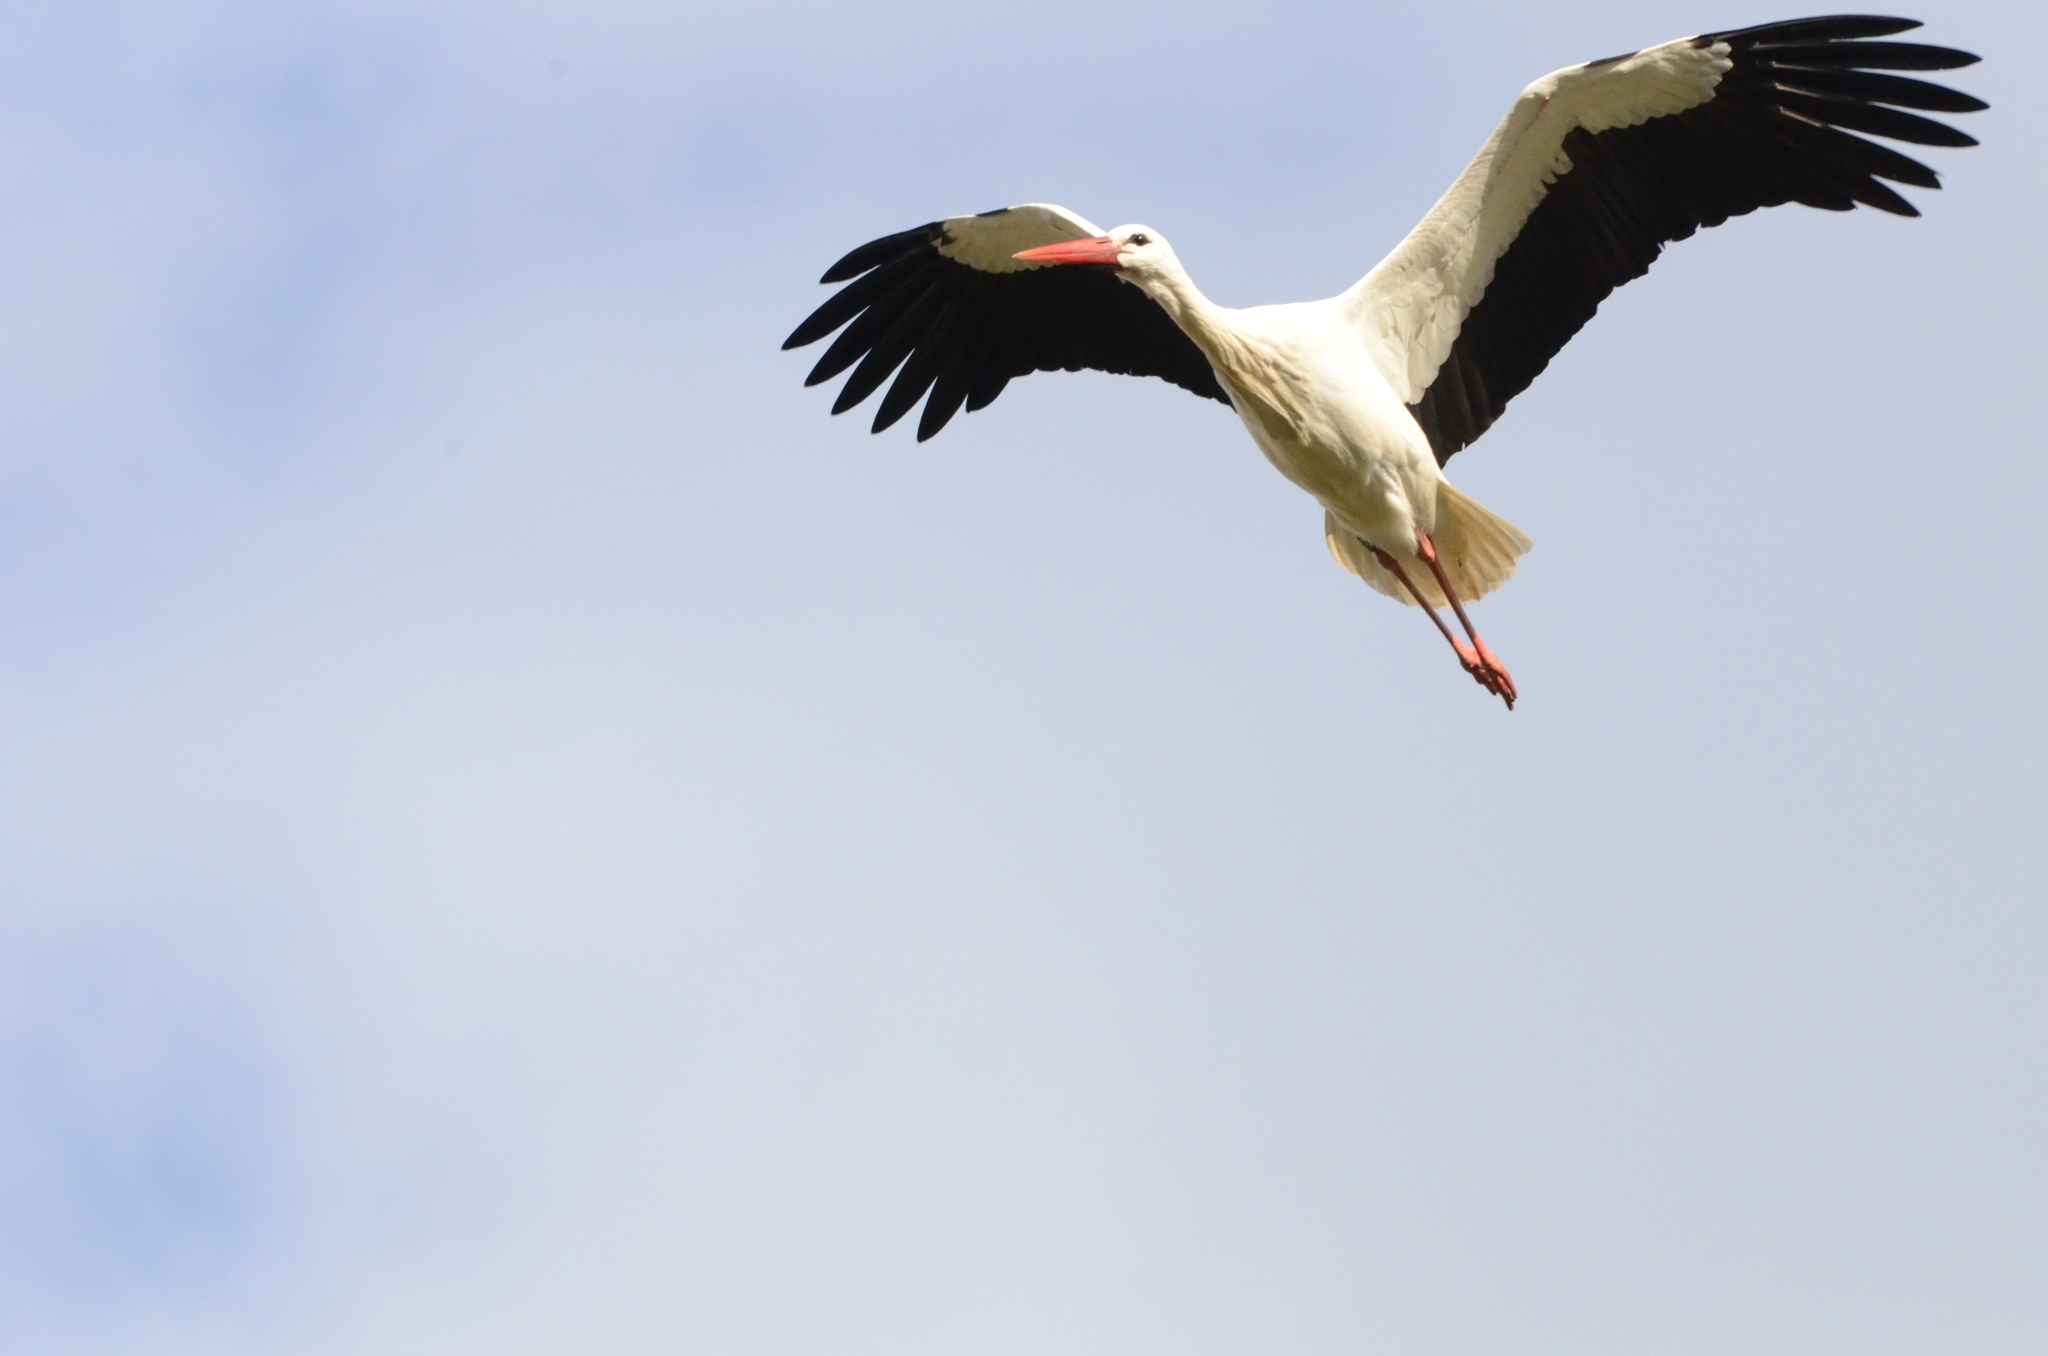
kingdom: Animalia
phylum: Chordata
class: Aves
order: Ciconiiformes
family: Ciconiidae
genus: Ciconia
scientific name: Ciconia ciconia
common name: White stork
